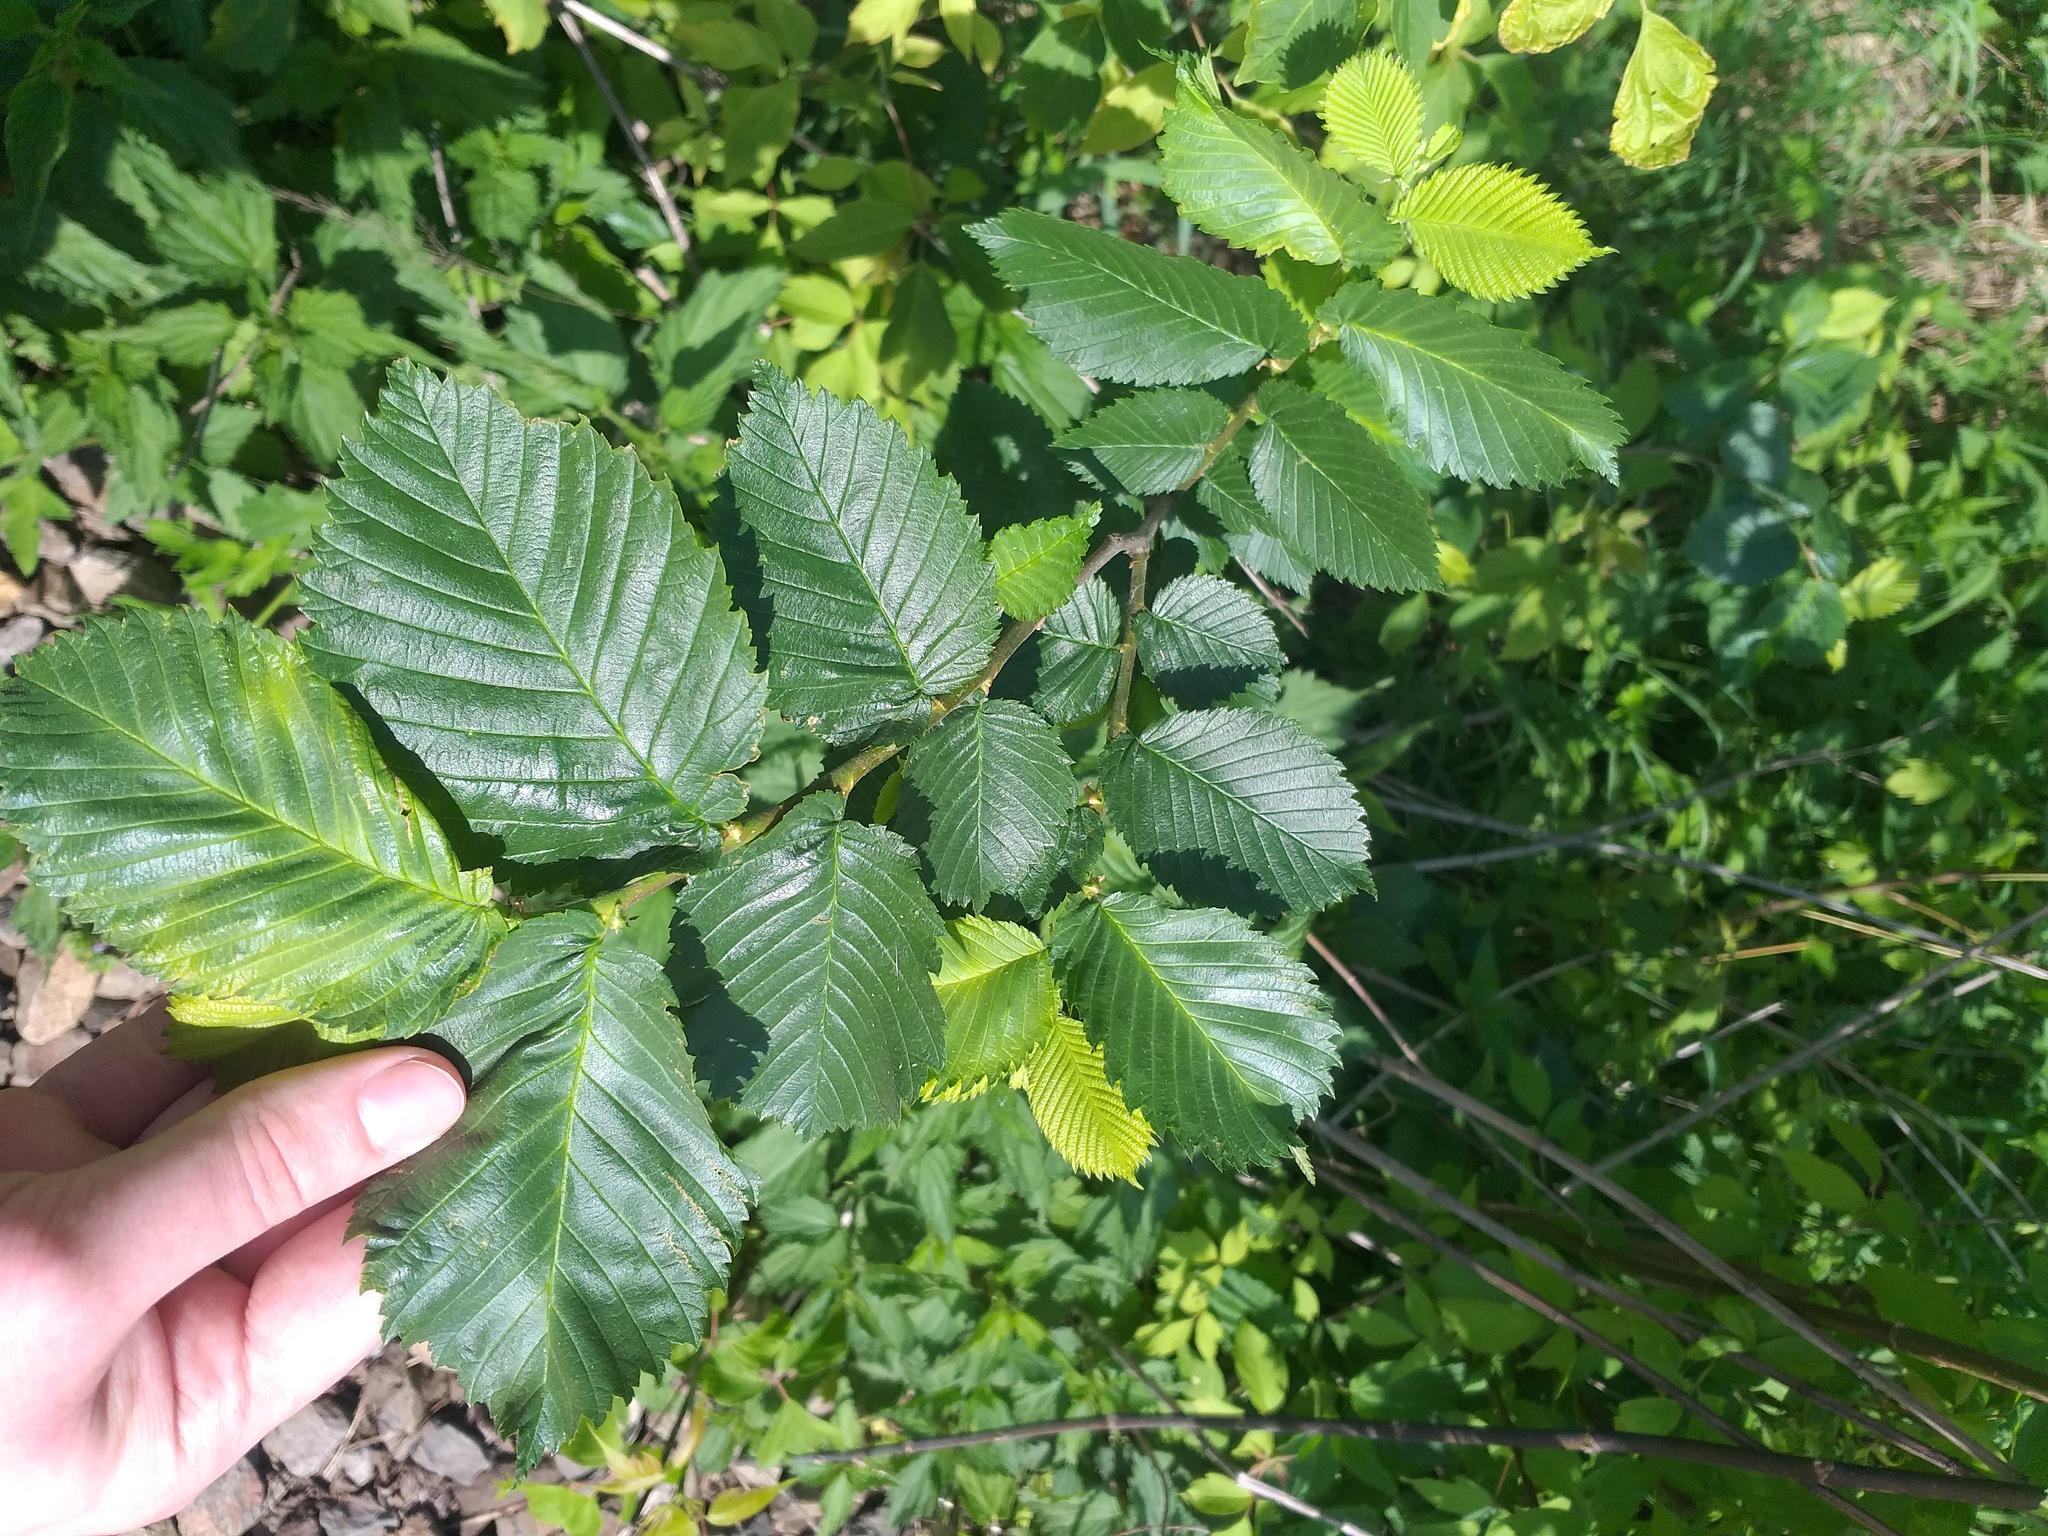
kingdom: Plantae
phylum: Tracheophyta
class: Magnoliopsida
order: Rosales
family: Ulmaceae
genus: Ulmus
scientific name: Ulmus laevis
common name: European white-elm
